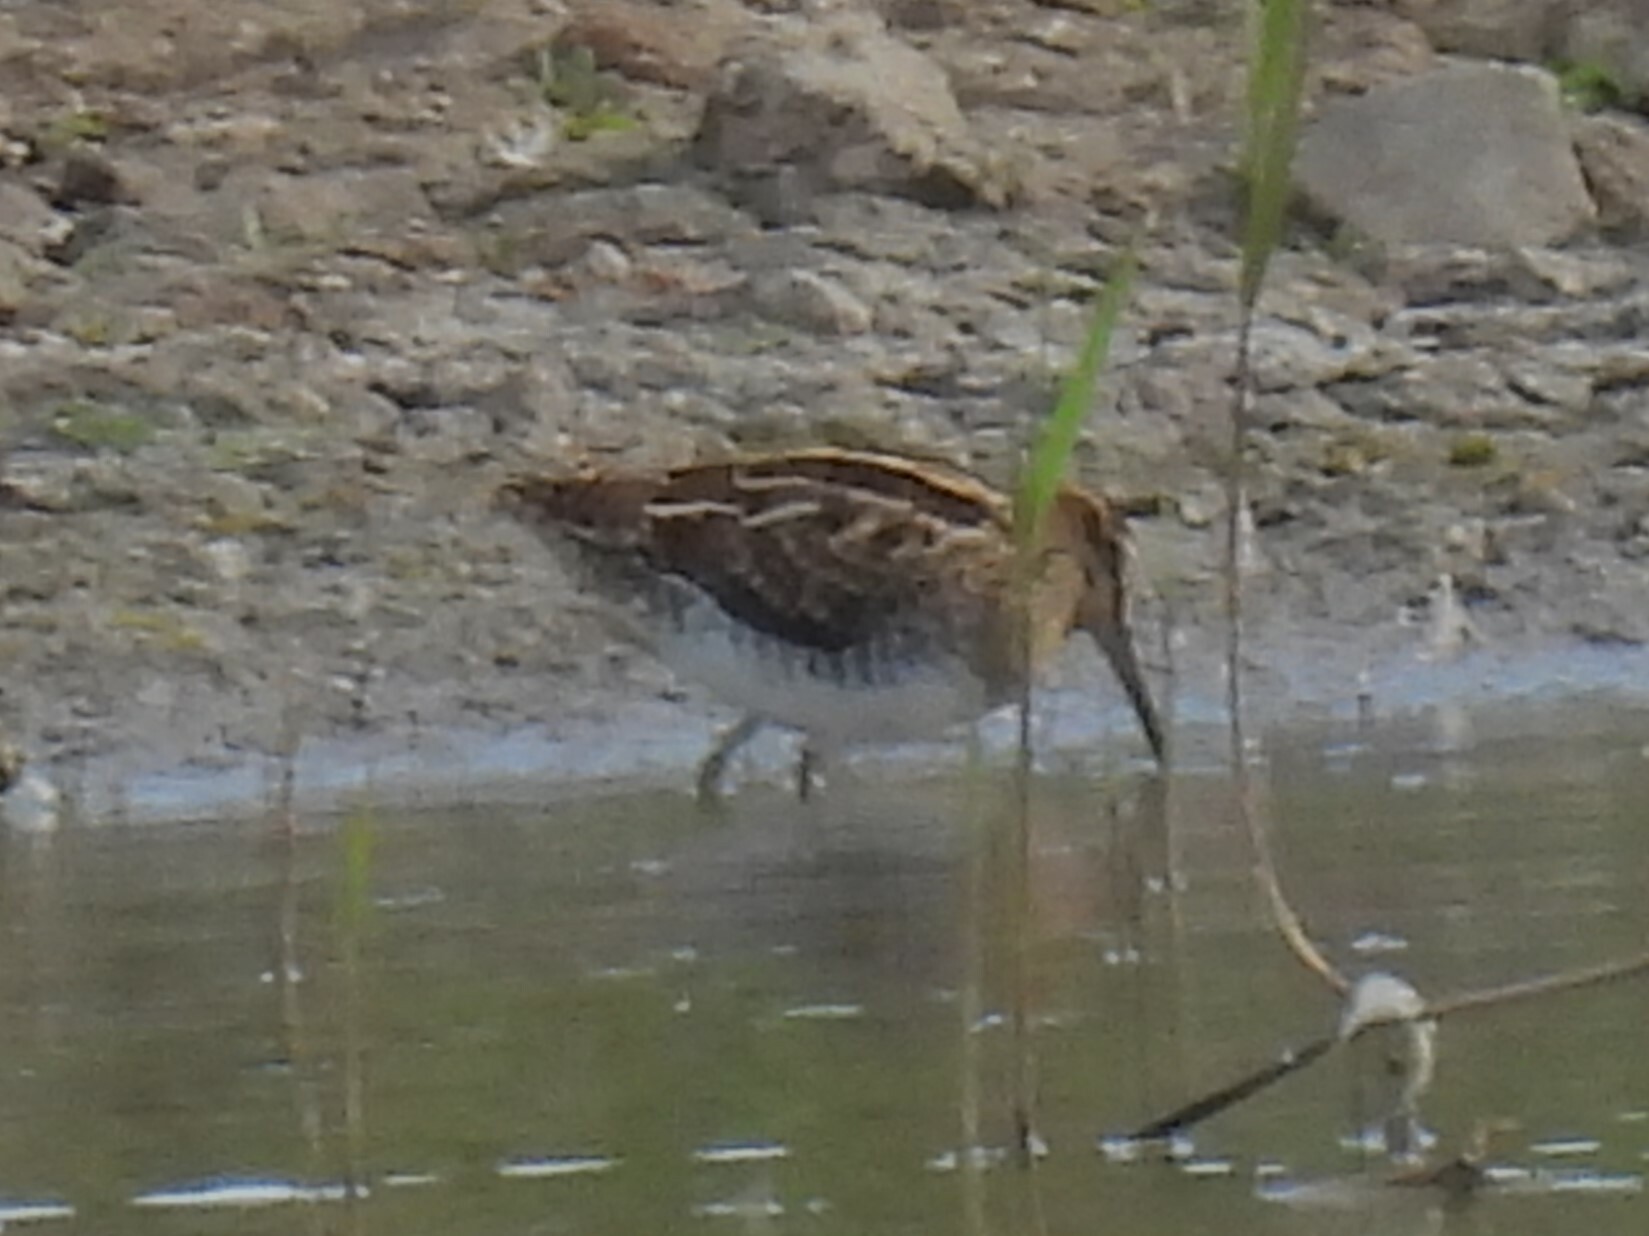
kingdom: Animalia
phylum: Chordata
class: Aves
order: Charadriiformes
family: Scolopacidae
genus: Gallinago
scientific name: Gallinago gallinago
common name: Common snipe
